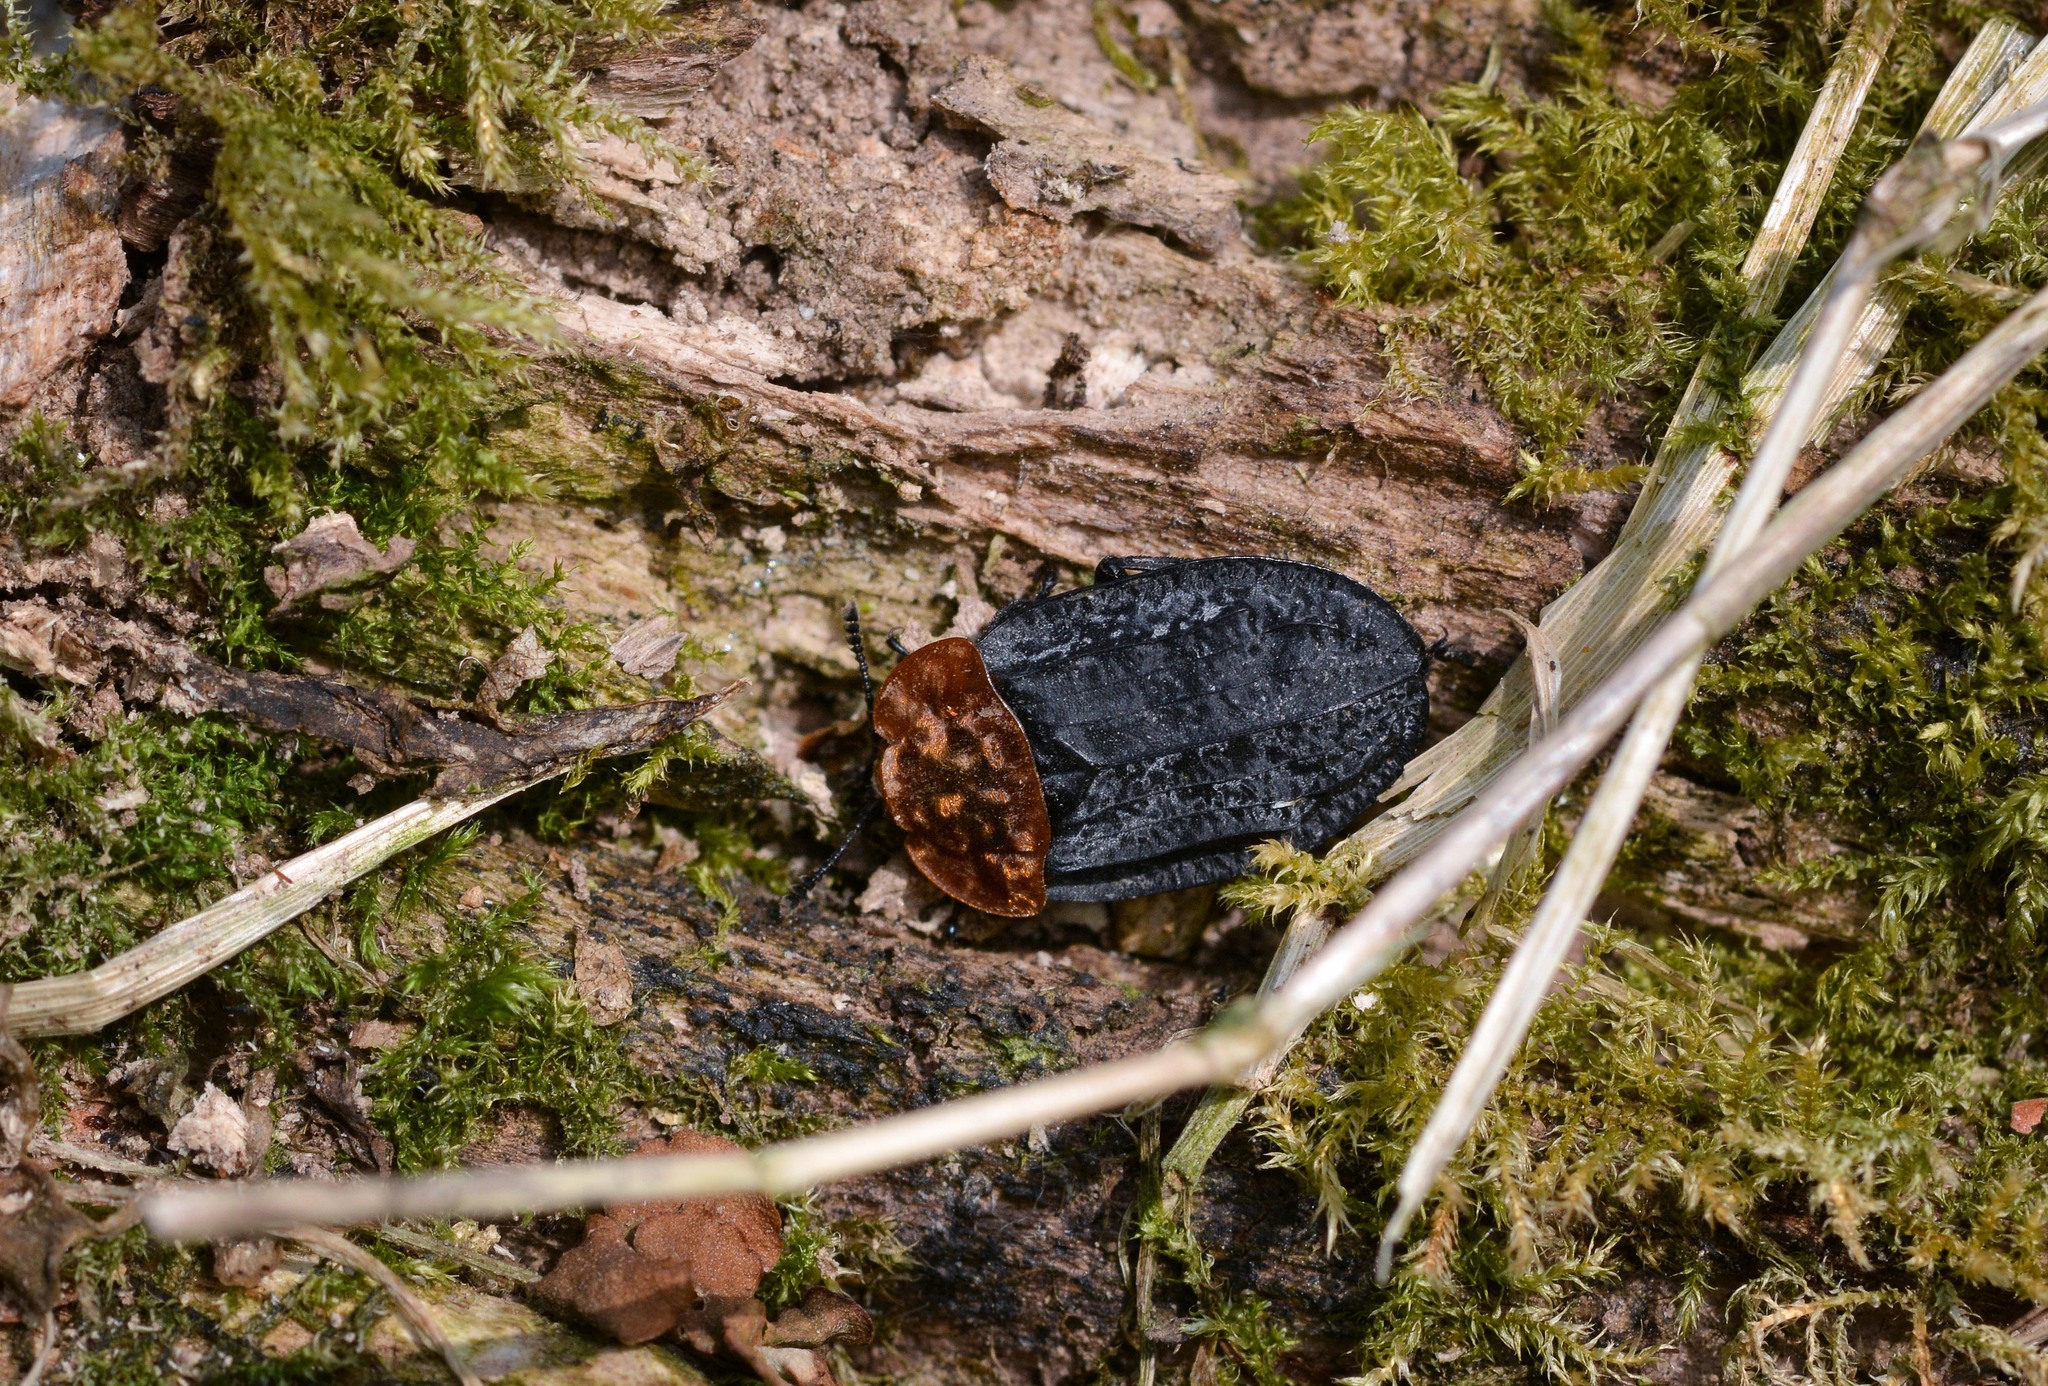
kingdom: Animalia
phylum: Arthropoda
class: Insecta
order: Coleoptera
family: Staphylinidae
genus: Oiceoptoma
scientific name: Oiceoptoma thoracicum
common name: Red-breasted carrion beetle
